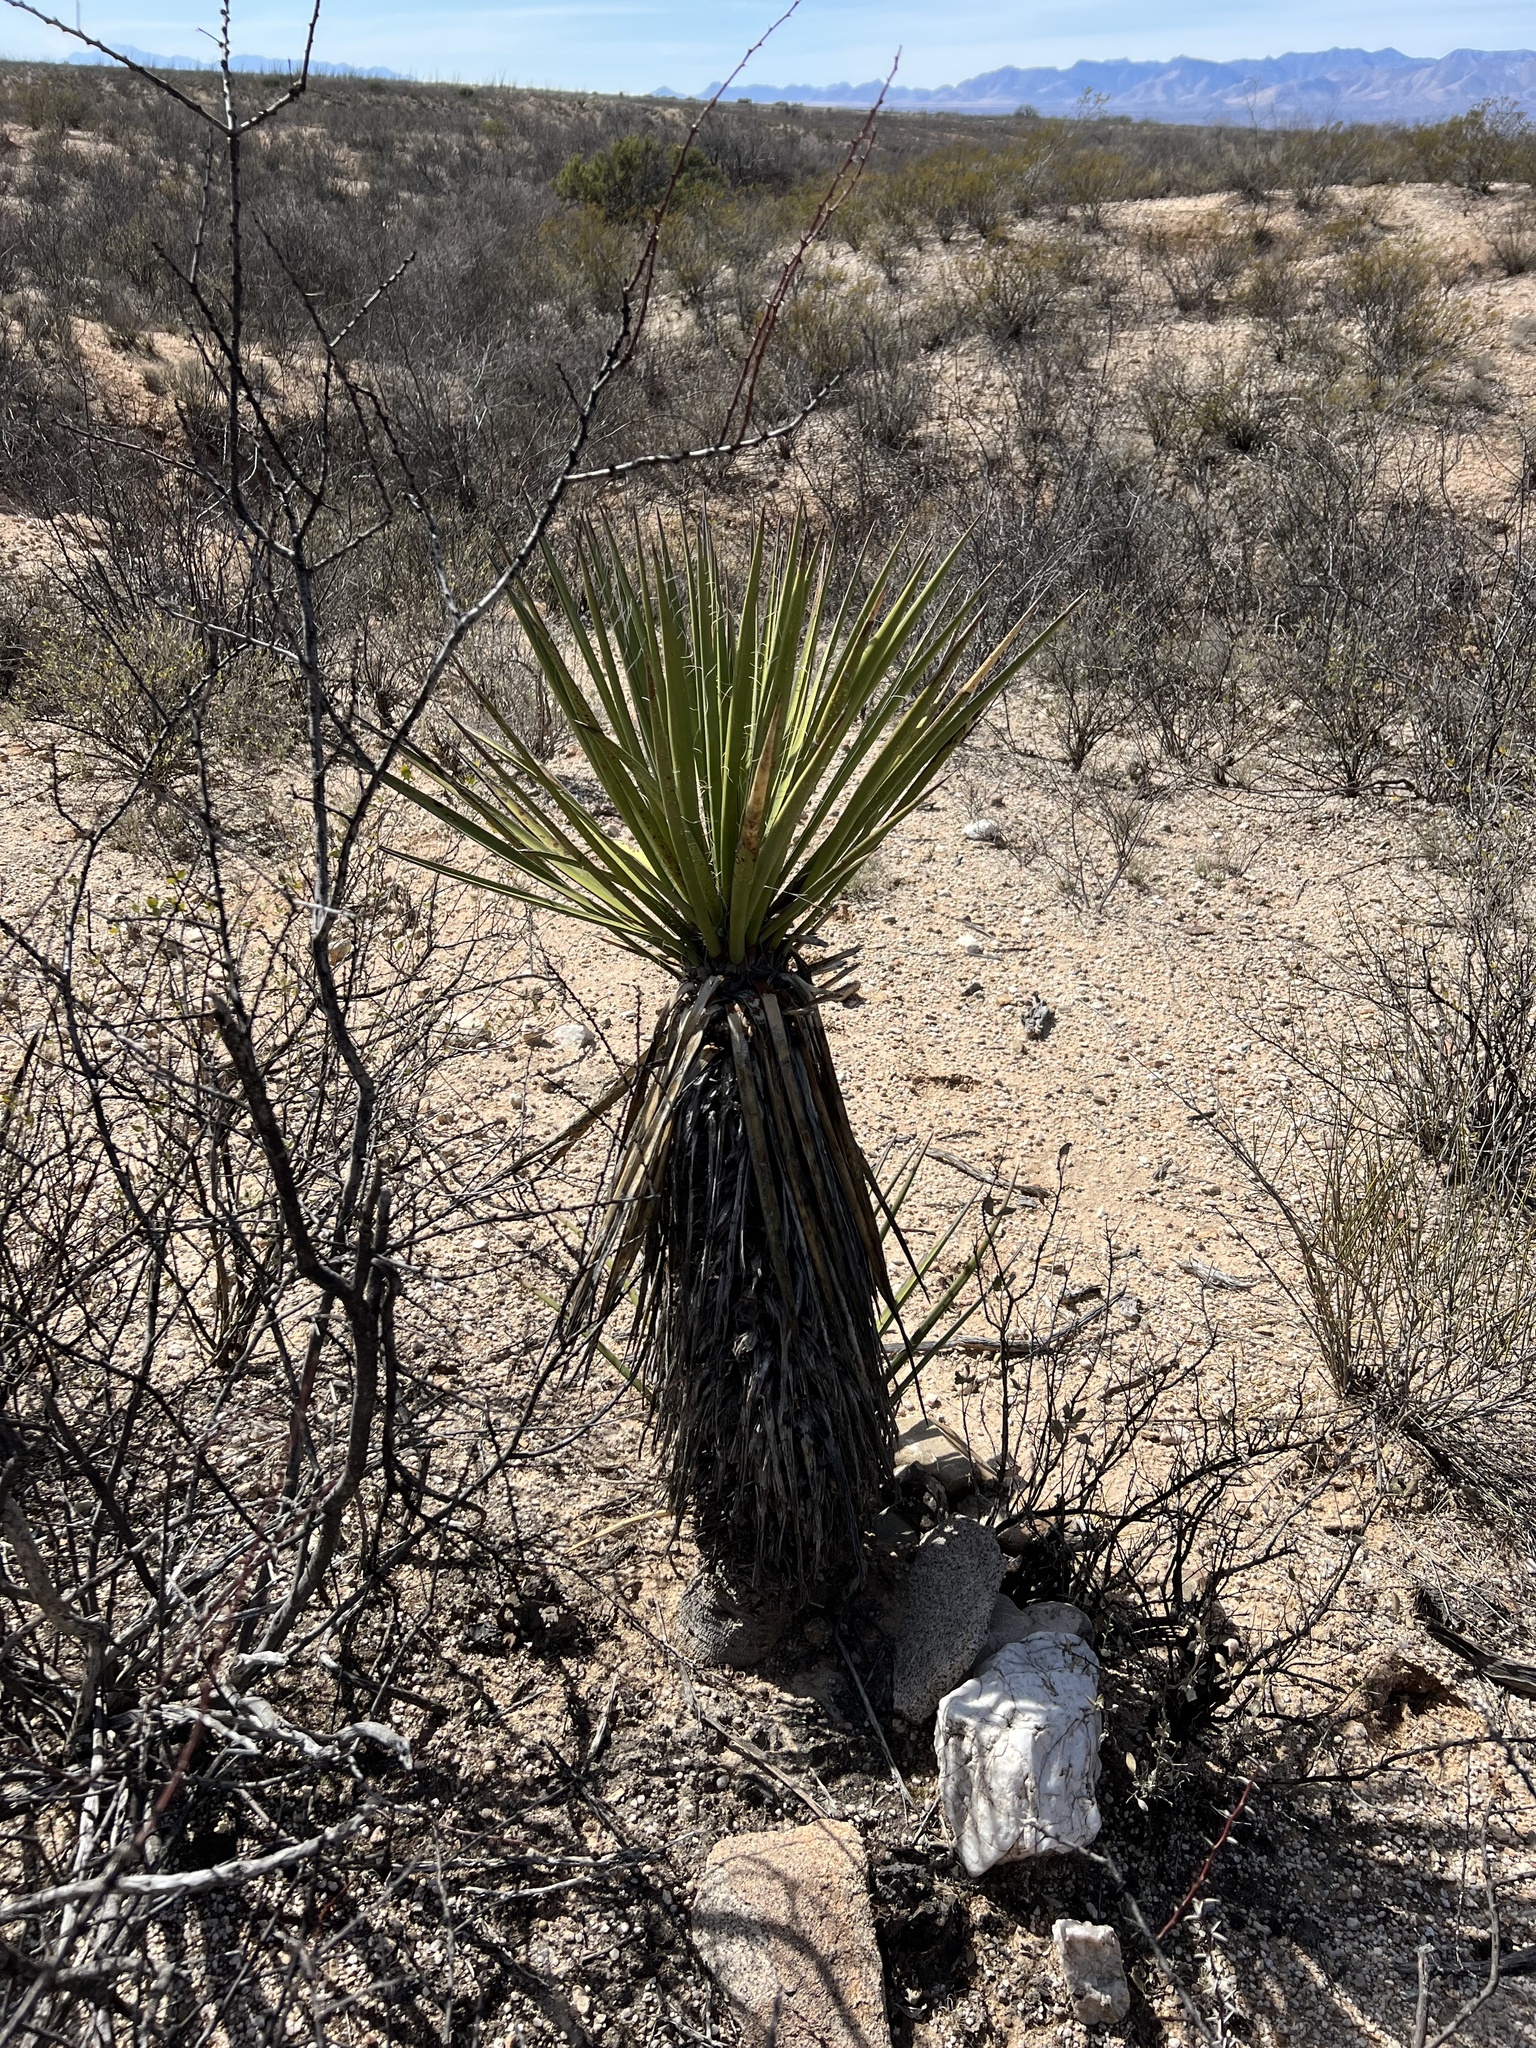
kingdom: Plantae
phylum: Tracheophyta
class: Liliopsida
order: Asparagales
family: Asparagaceae
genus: Yucca
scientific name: Yucca baccata
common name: Banana yucca
